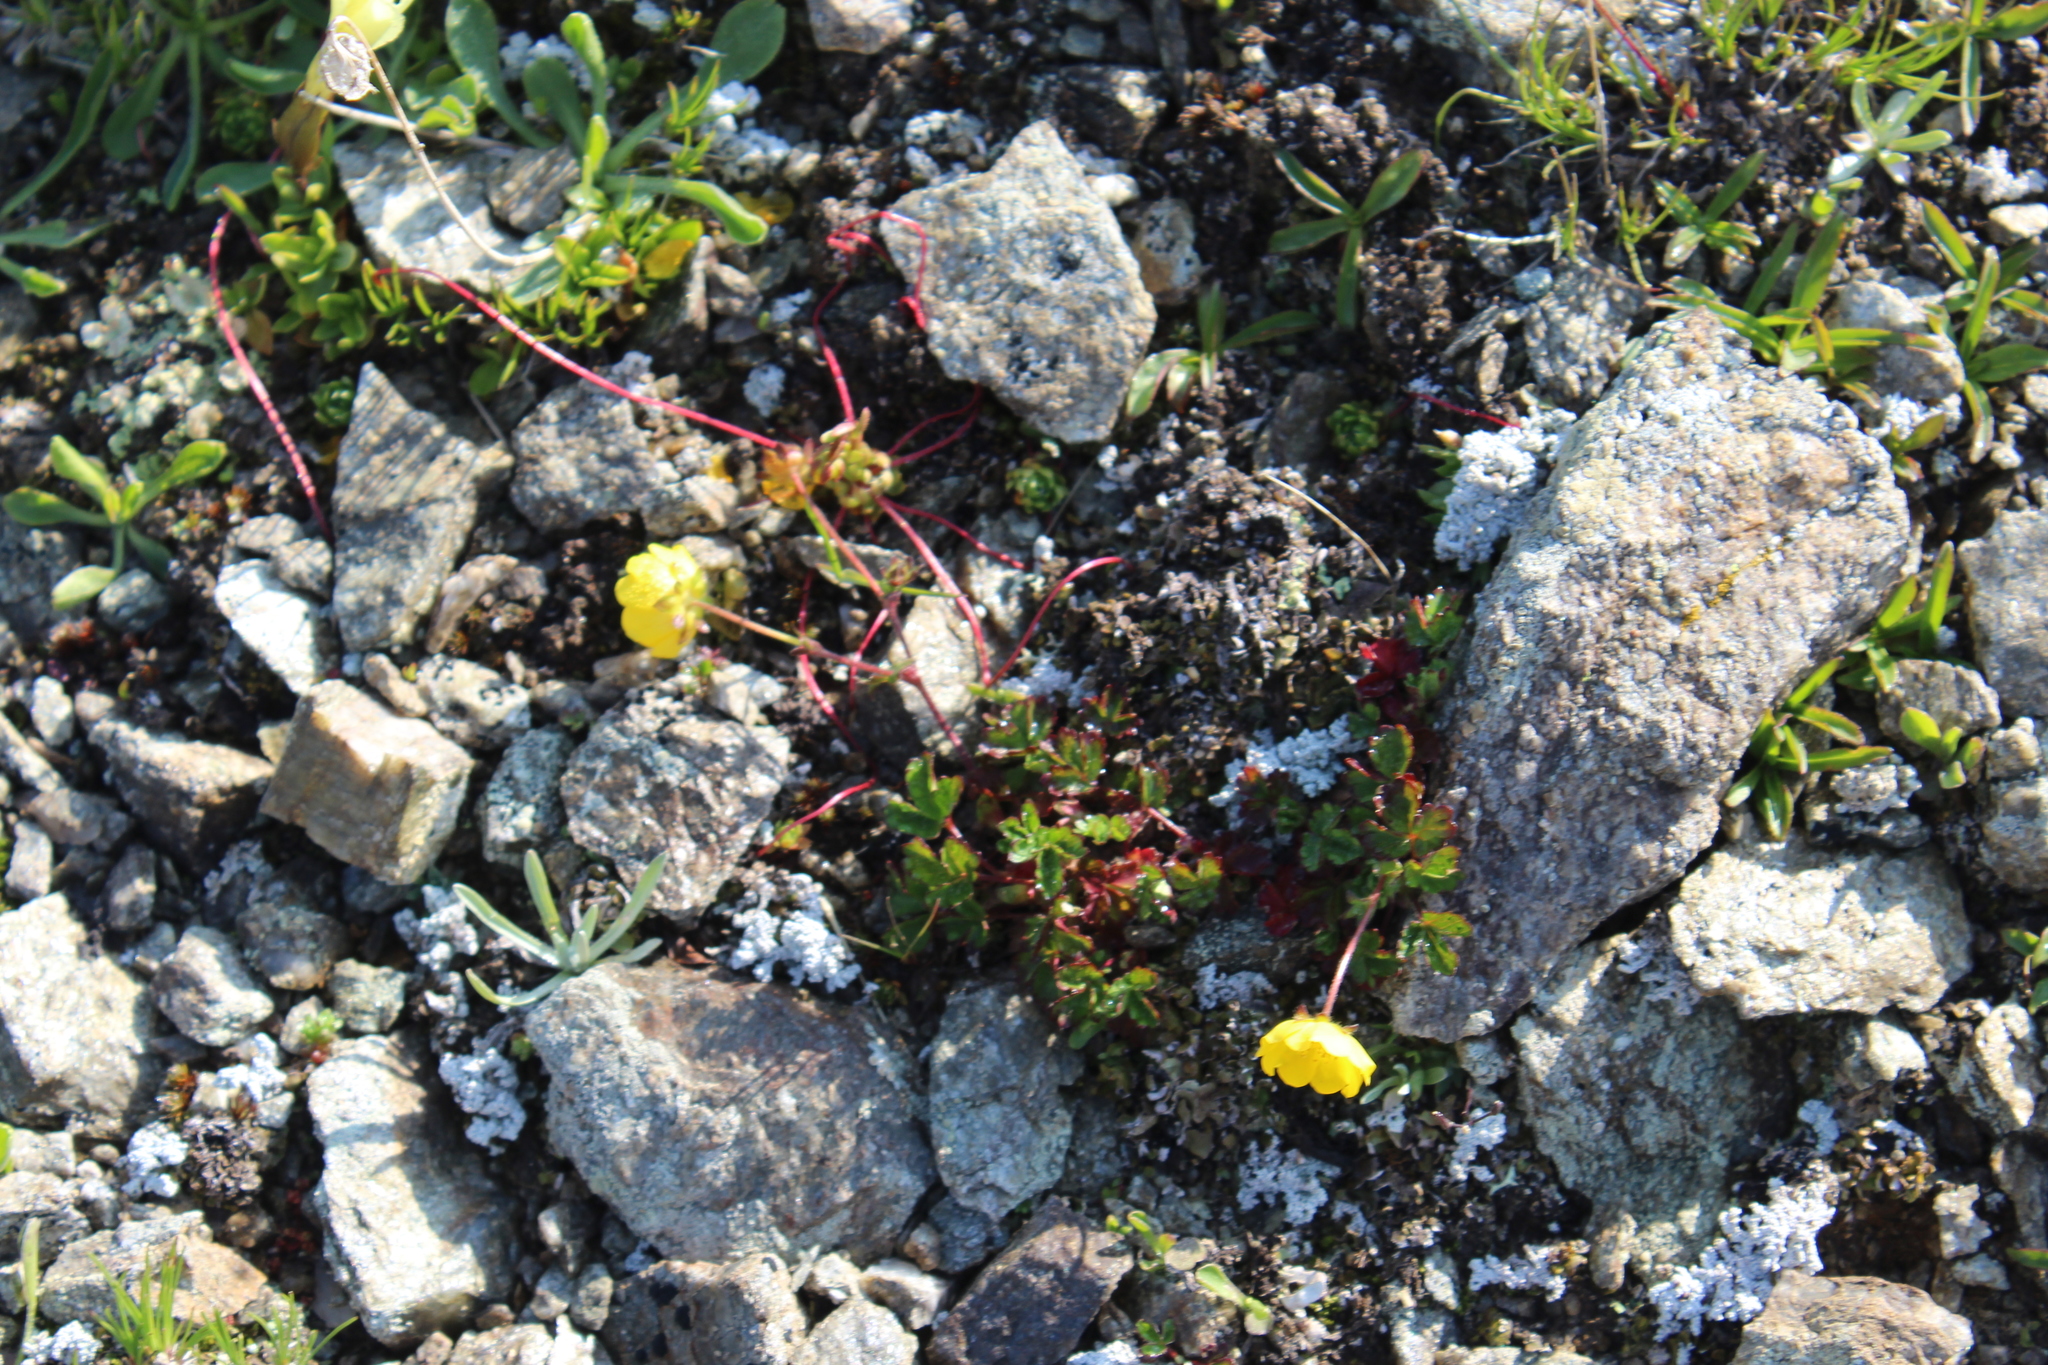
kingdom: Plantae
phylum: Tracheophyta
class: Magnoliopsida
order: Rosales
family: Rosaceae
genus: Potentilla
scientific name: Potentilla
